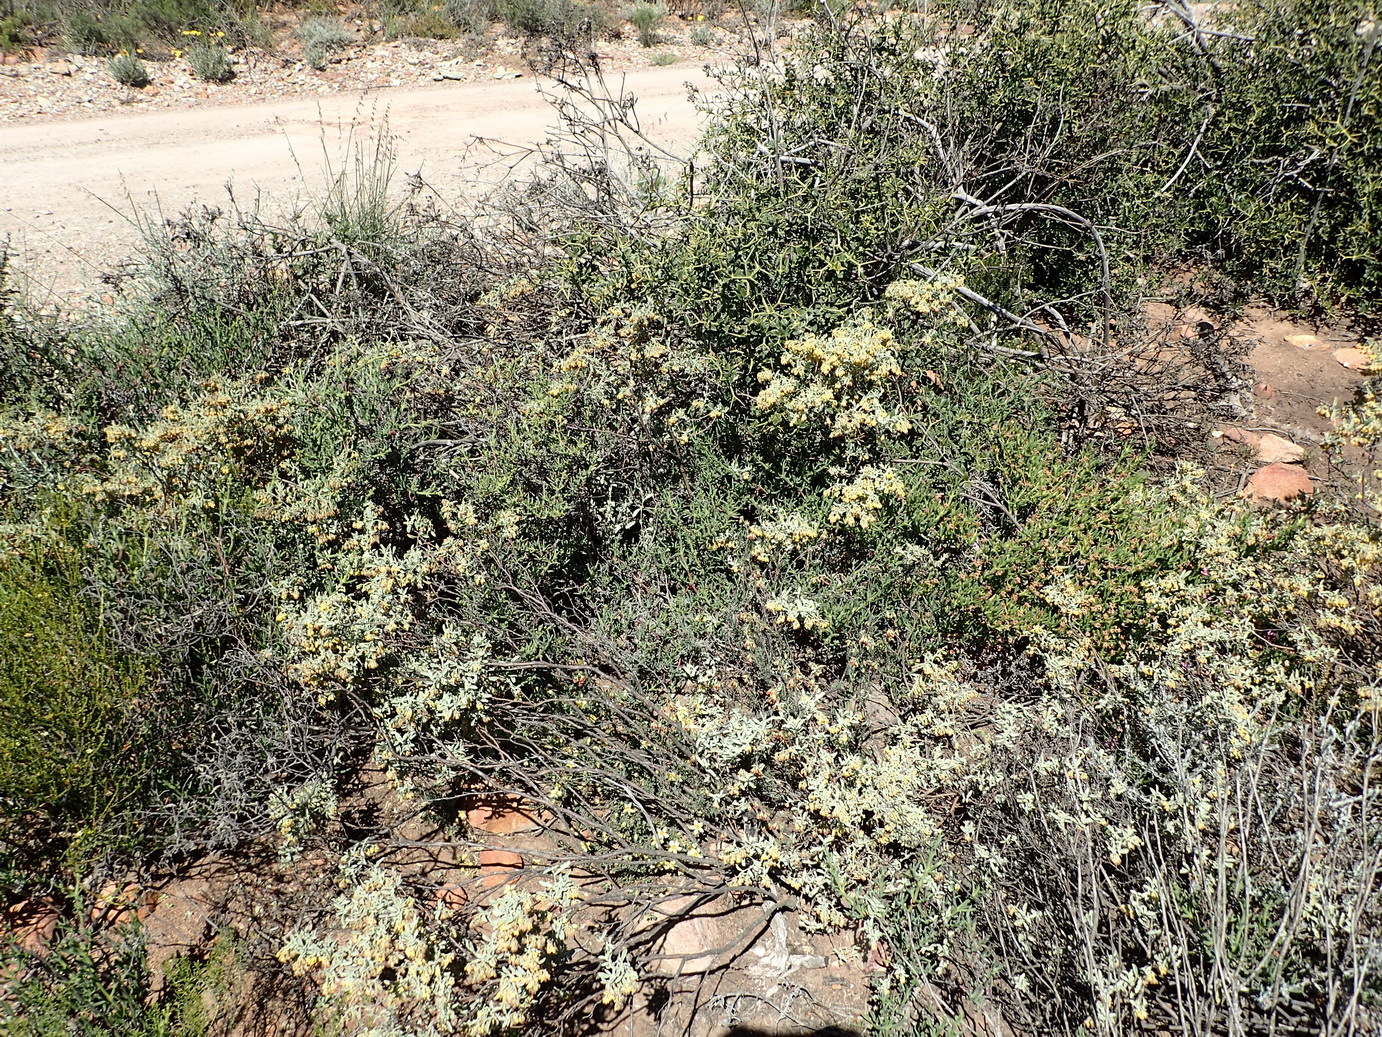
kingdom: Plantae
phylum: Tracheophyta
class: Magnoliopsida
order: Malvales
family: Malvaceae
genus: Hermannia
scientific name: Hermannia holosericea
